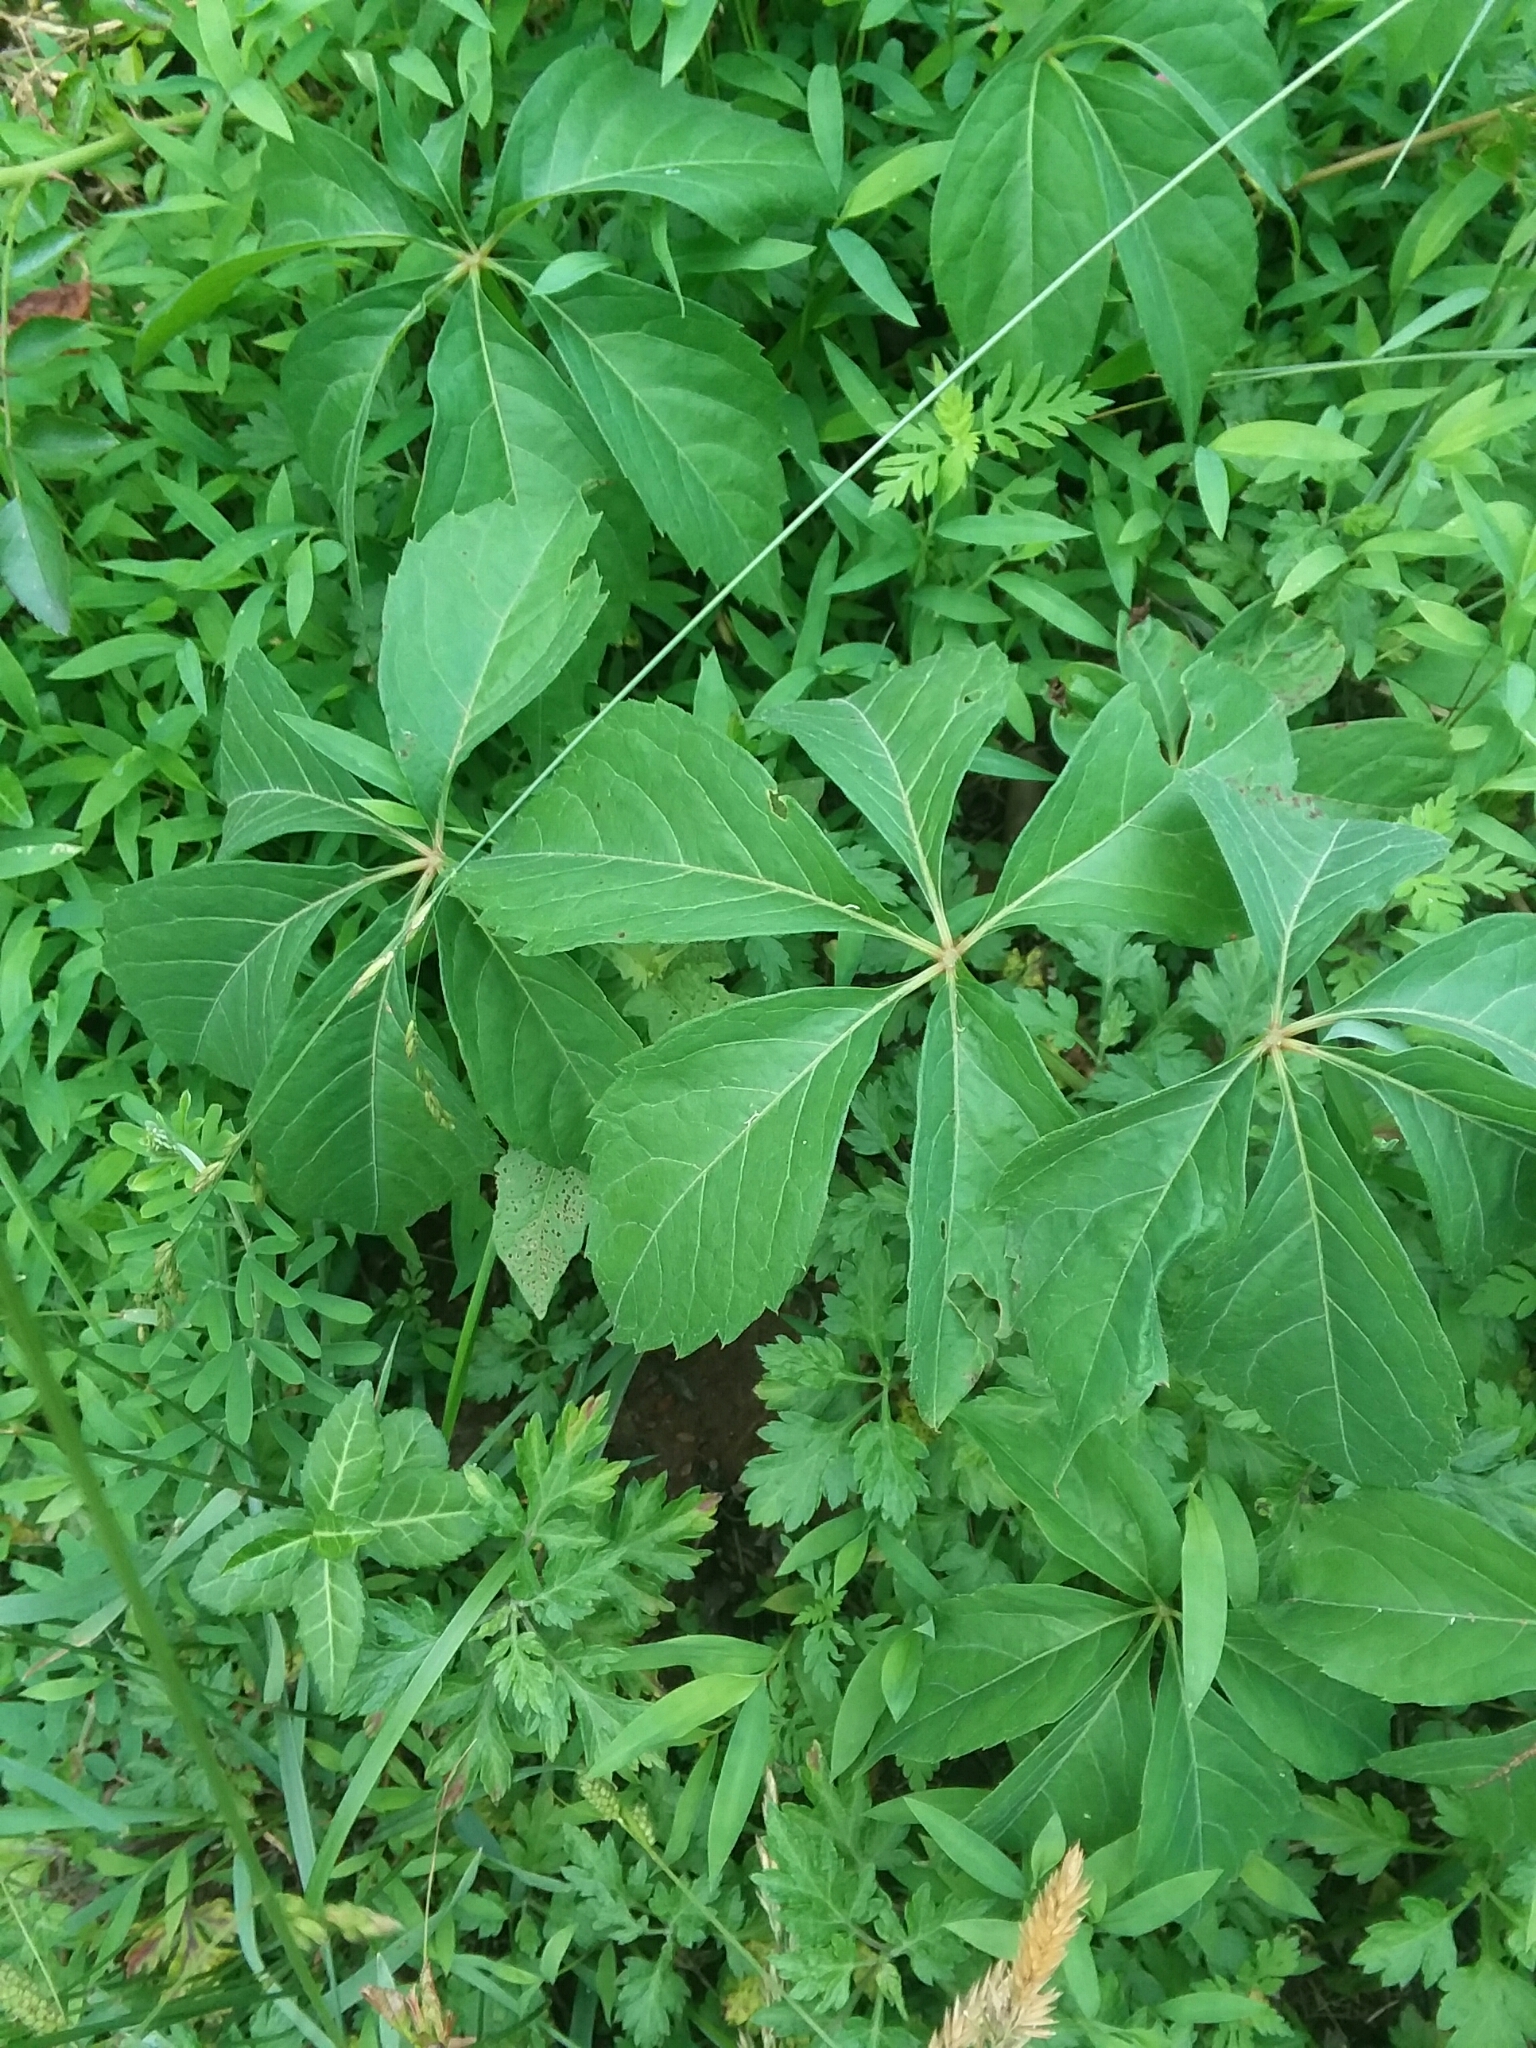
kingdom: Plantae
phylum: Tracheophyta
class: Magnoliopsida
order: Vitales
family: Vitaceae
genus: Parthenocissus
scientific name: Parthenocissus quinquefolia
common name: Virginia-creeper
